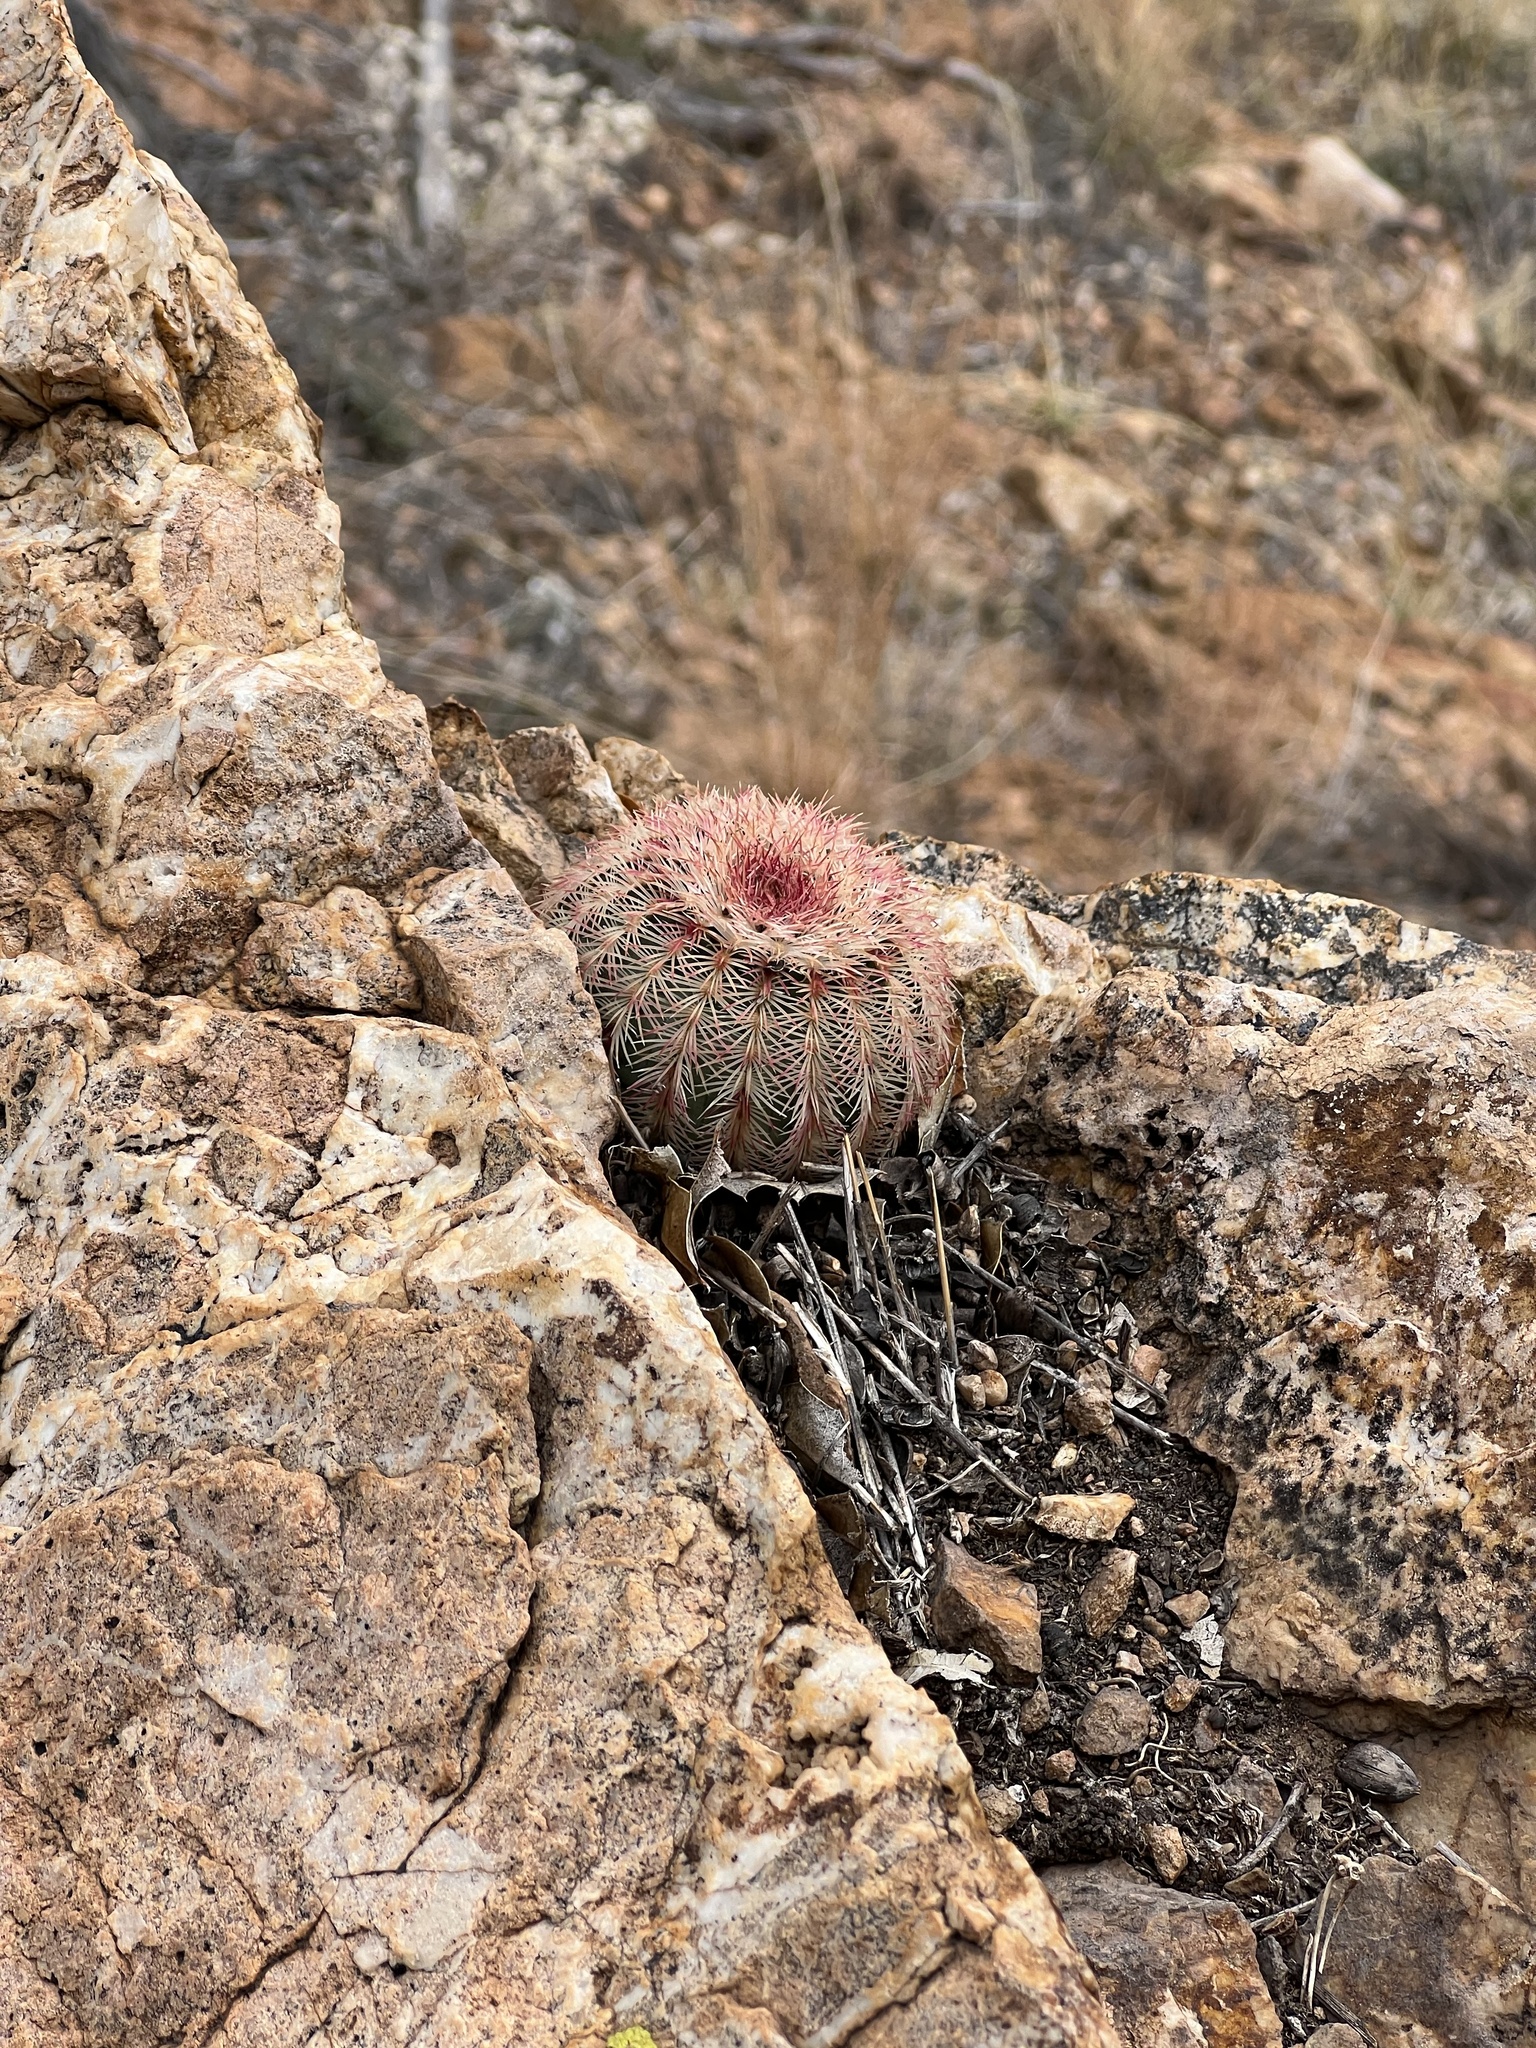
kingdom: Plantae
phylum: Tracheophyta
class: Magnoliopsida
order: Caryophyllales
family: Cactaceae
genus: Echinocereus
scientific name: Echinocereus rigidissimus
